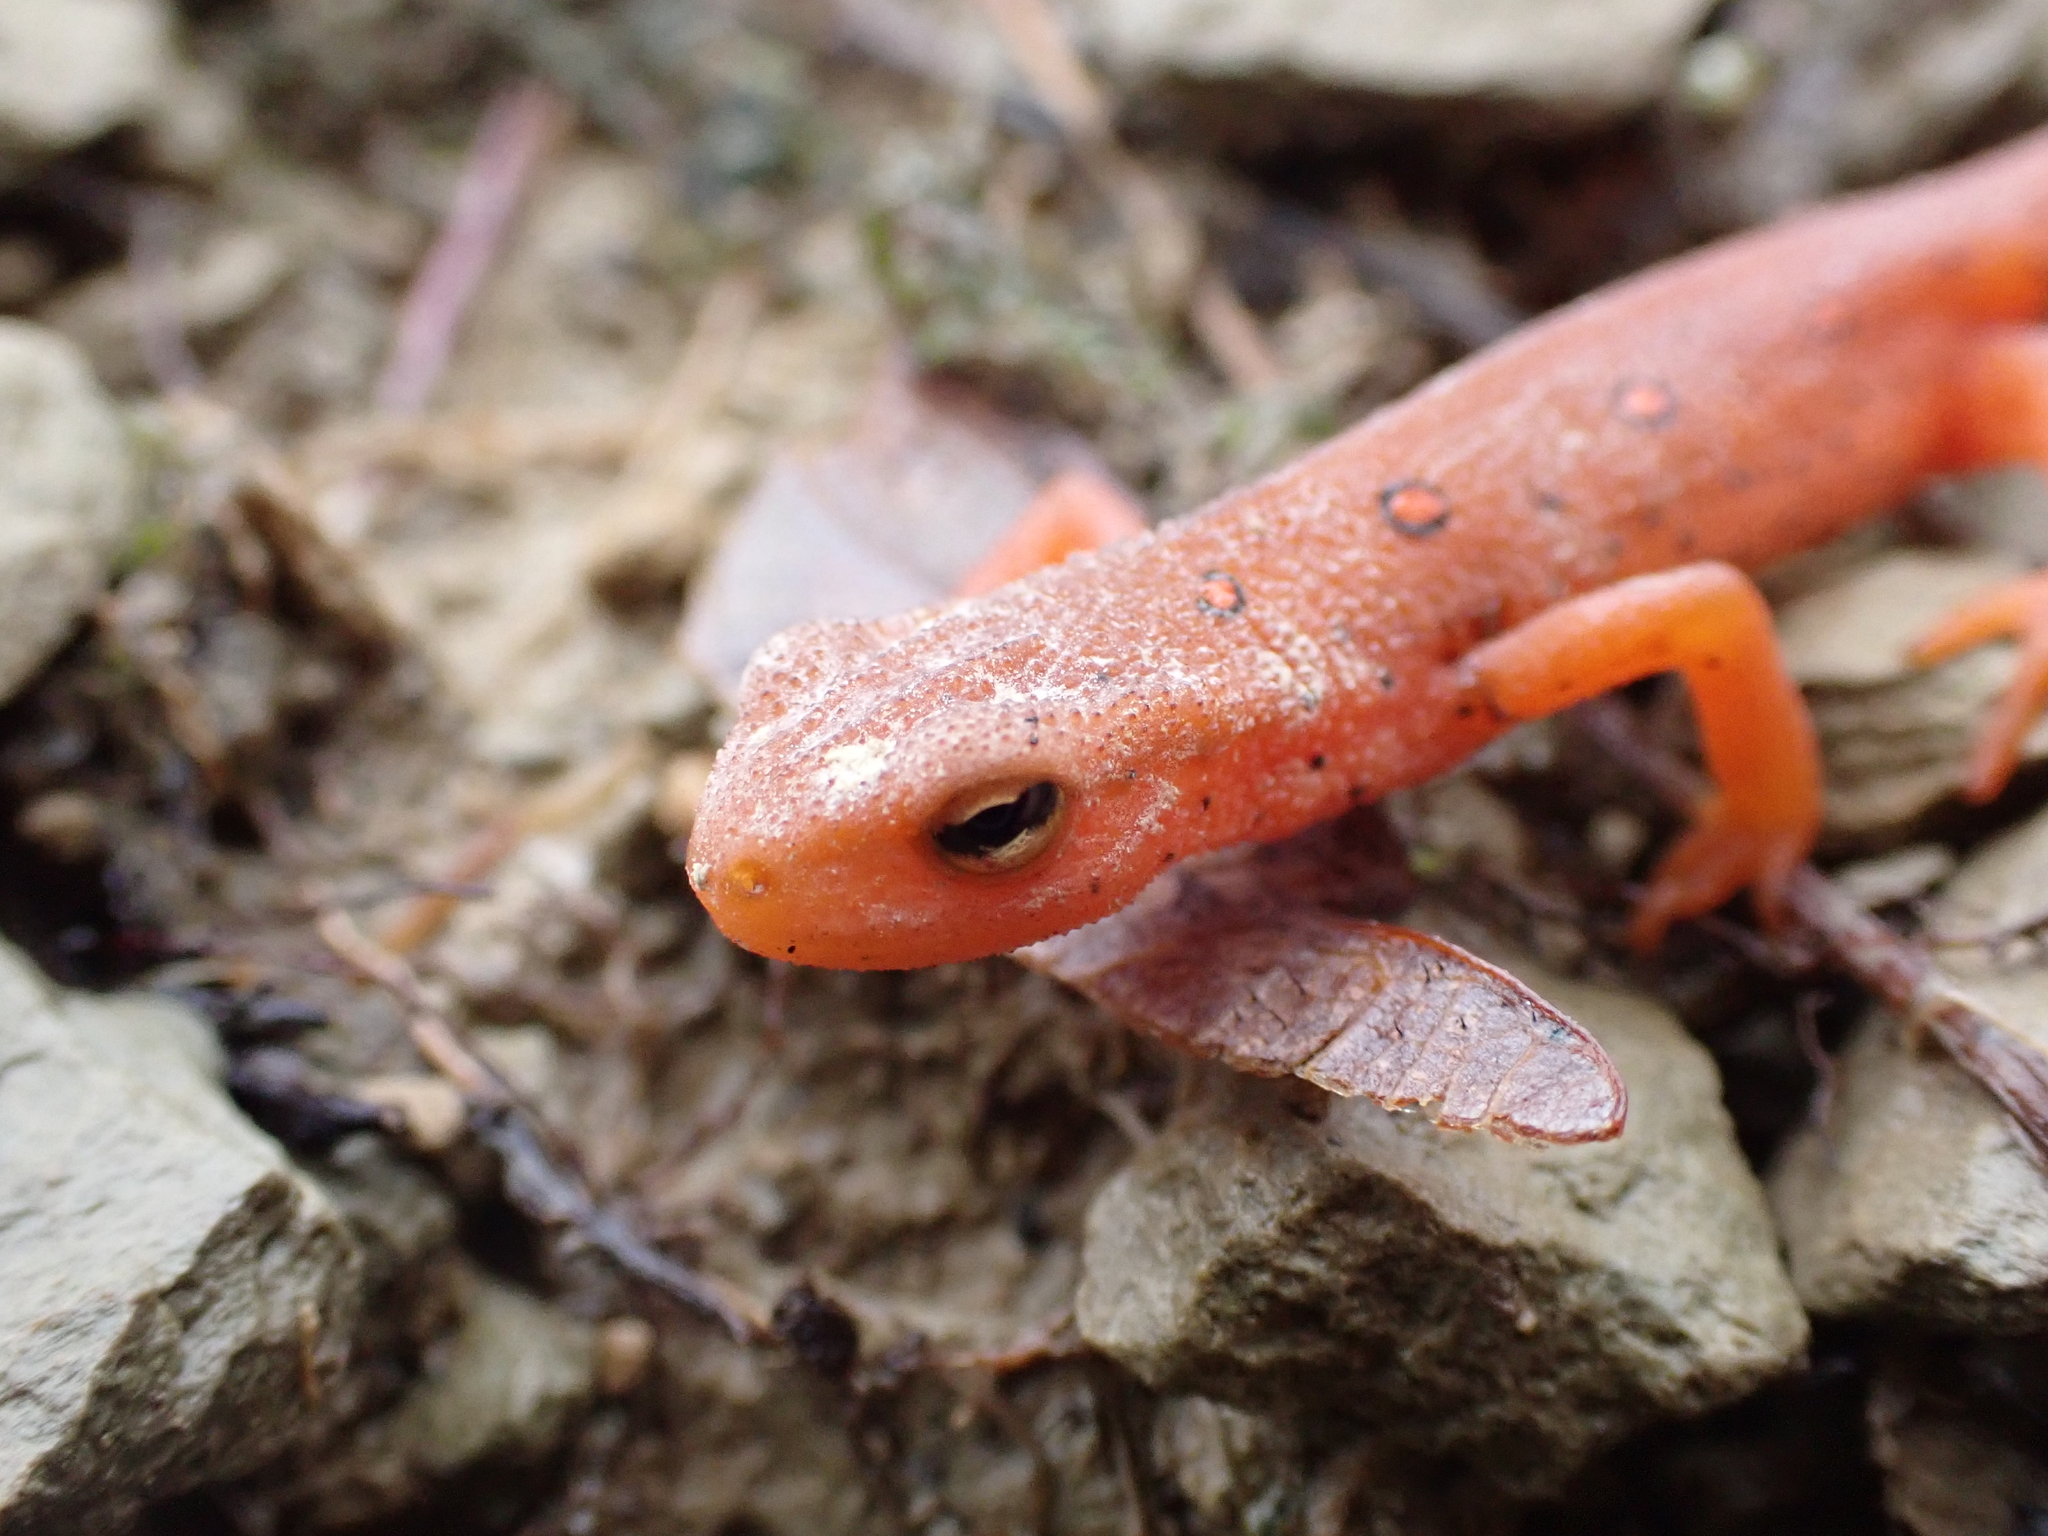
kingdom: Animalia
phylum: Chordata
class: Amphibia
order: Caudata
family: Salamandridae
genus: Notophthalmus
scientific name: Notophthalmus viridescens
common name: Eastern newt
